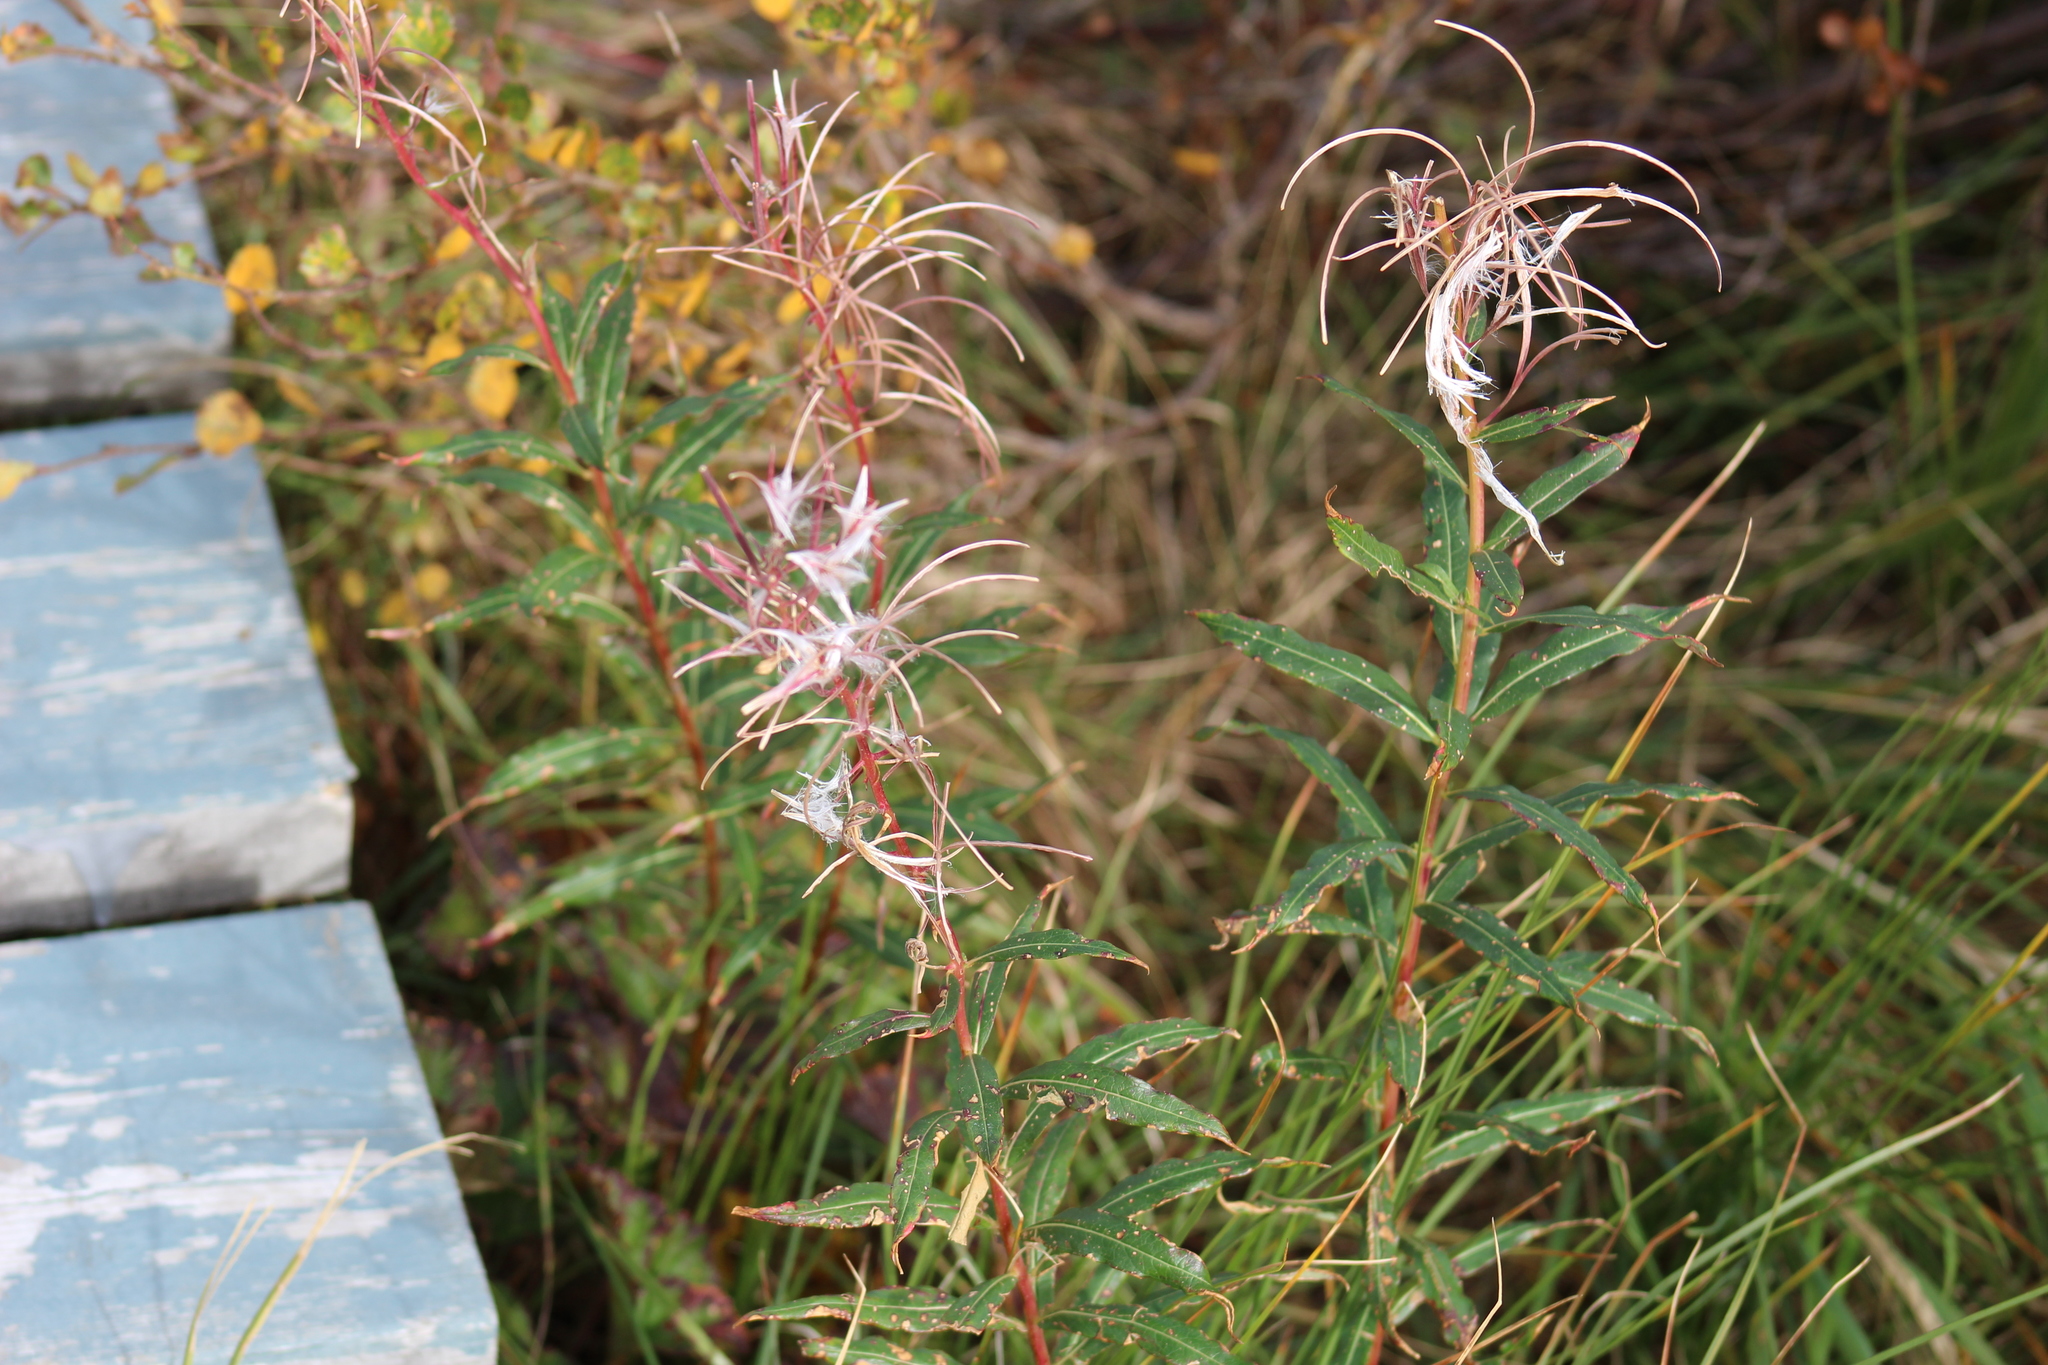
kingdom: Plantae
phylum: Tracheophyta
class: Magnoliopsida
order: Myrtales
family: Onagraceae
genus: Chamaenerion
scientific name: Chamaenerion angustifolium
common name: Fireweed
